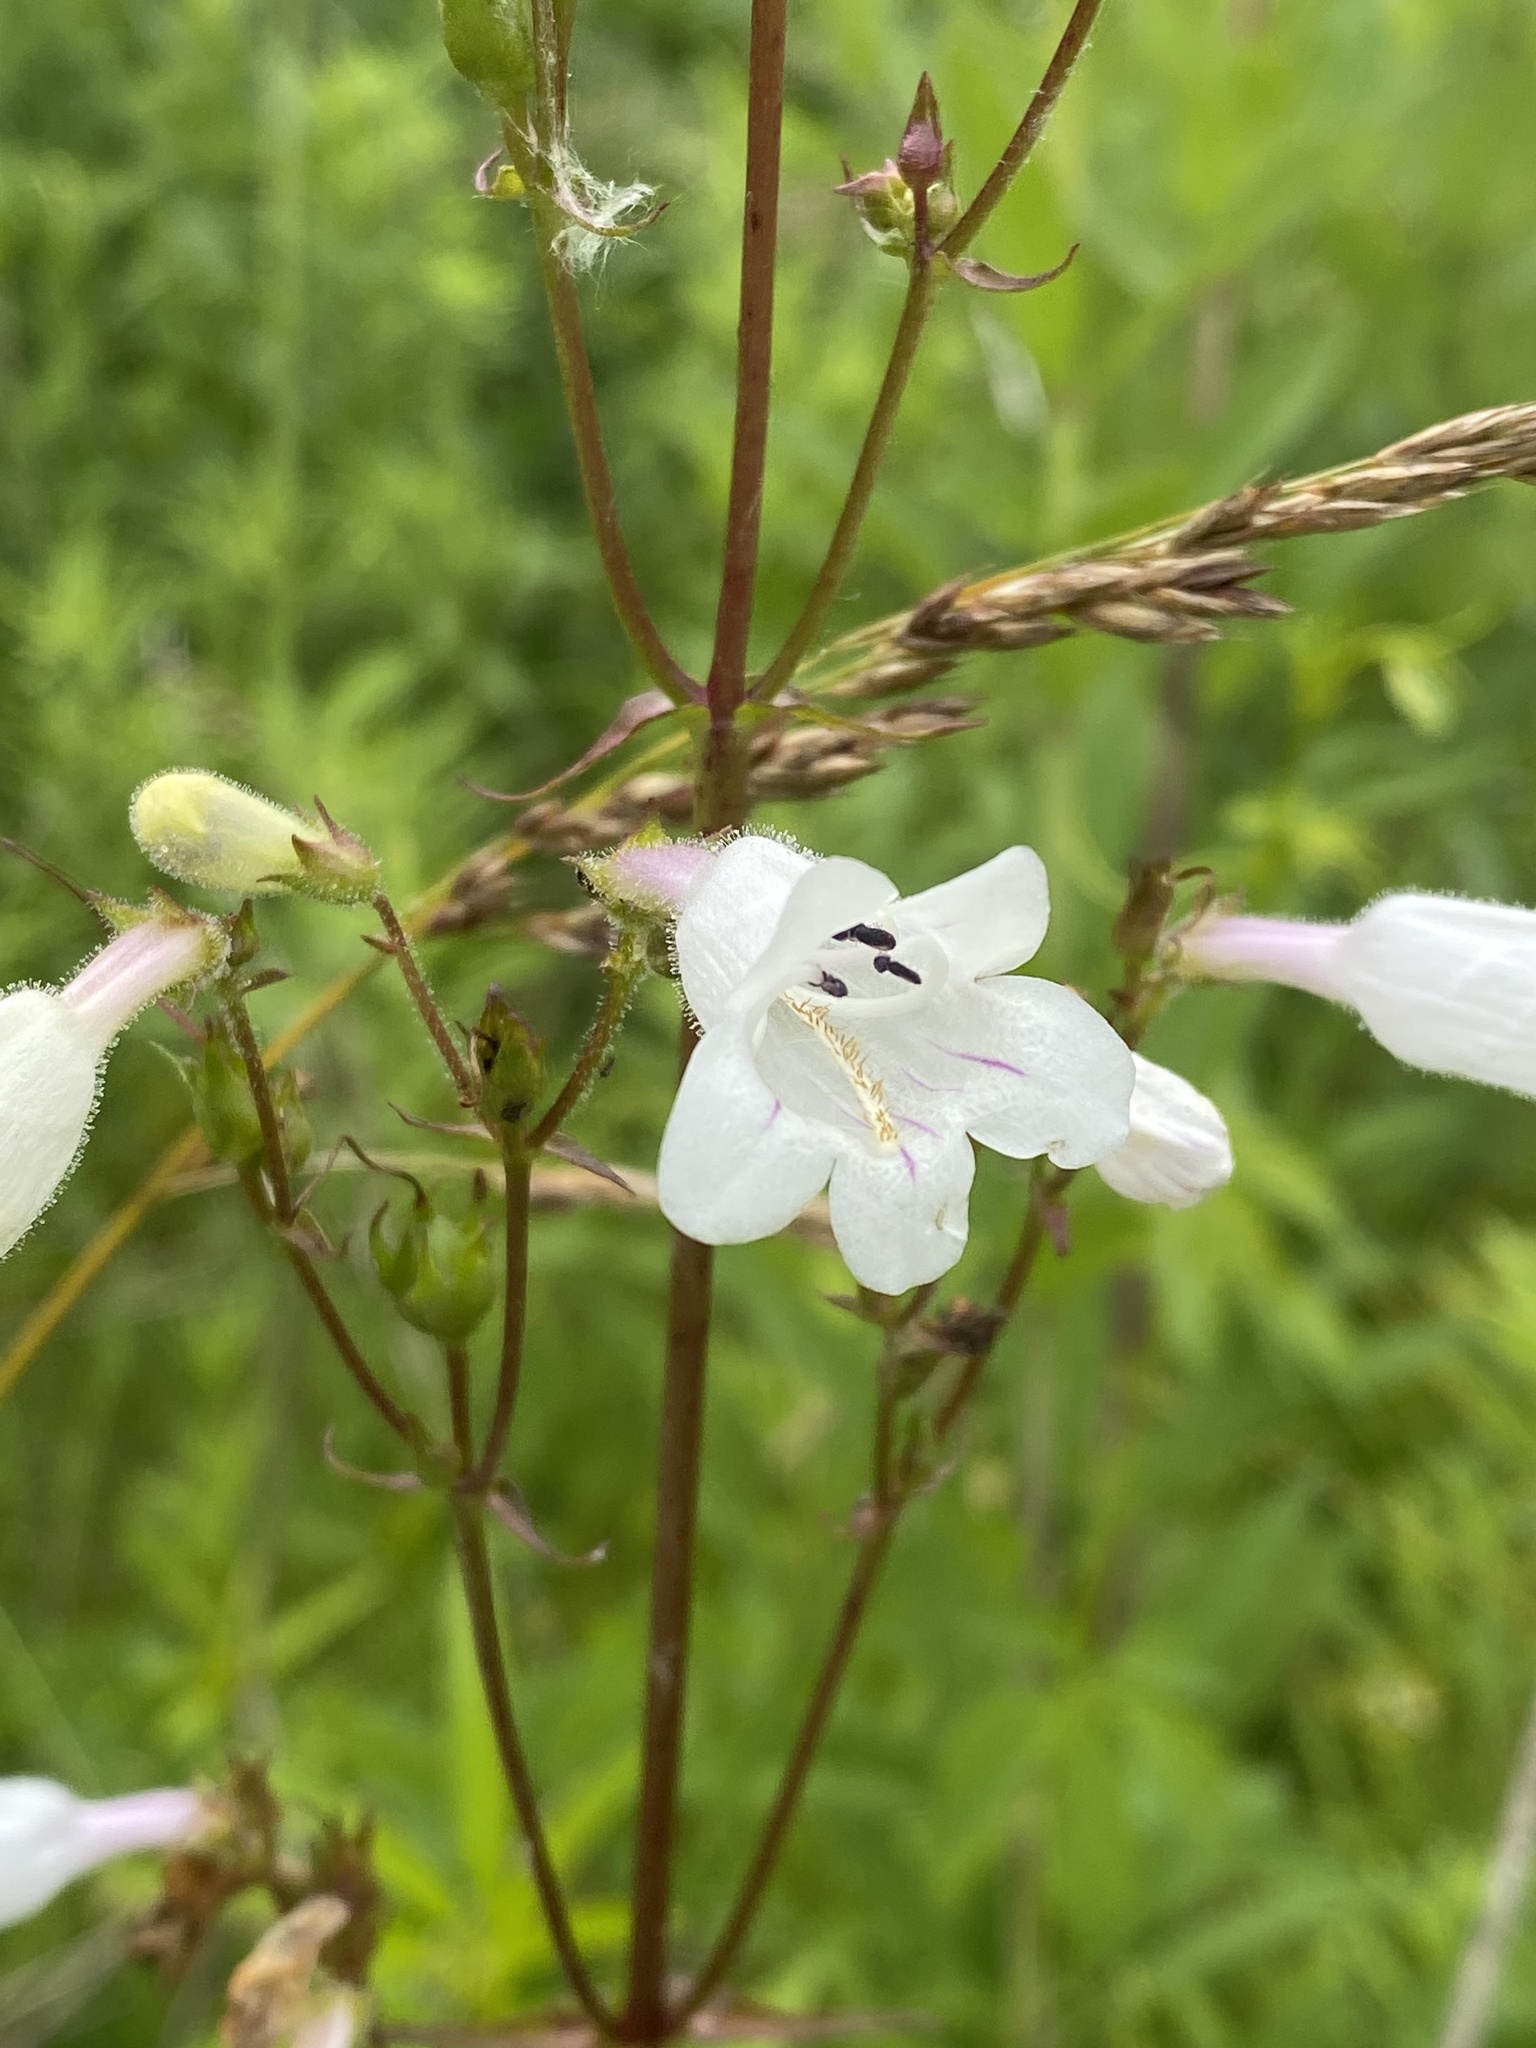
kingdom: Plantae
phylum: Tracheophyta
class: Magnoliopsida
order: Lamiales
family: Plantaginaceae
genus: Penstemon
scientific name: Penstemon digitalis
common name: Foxglove beardtongue
